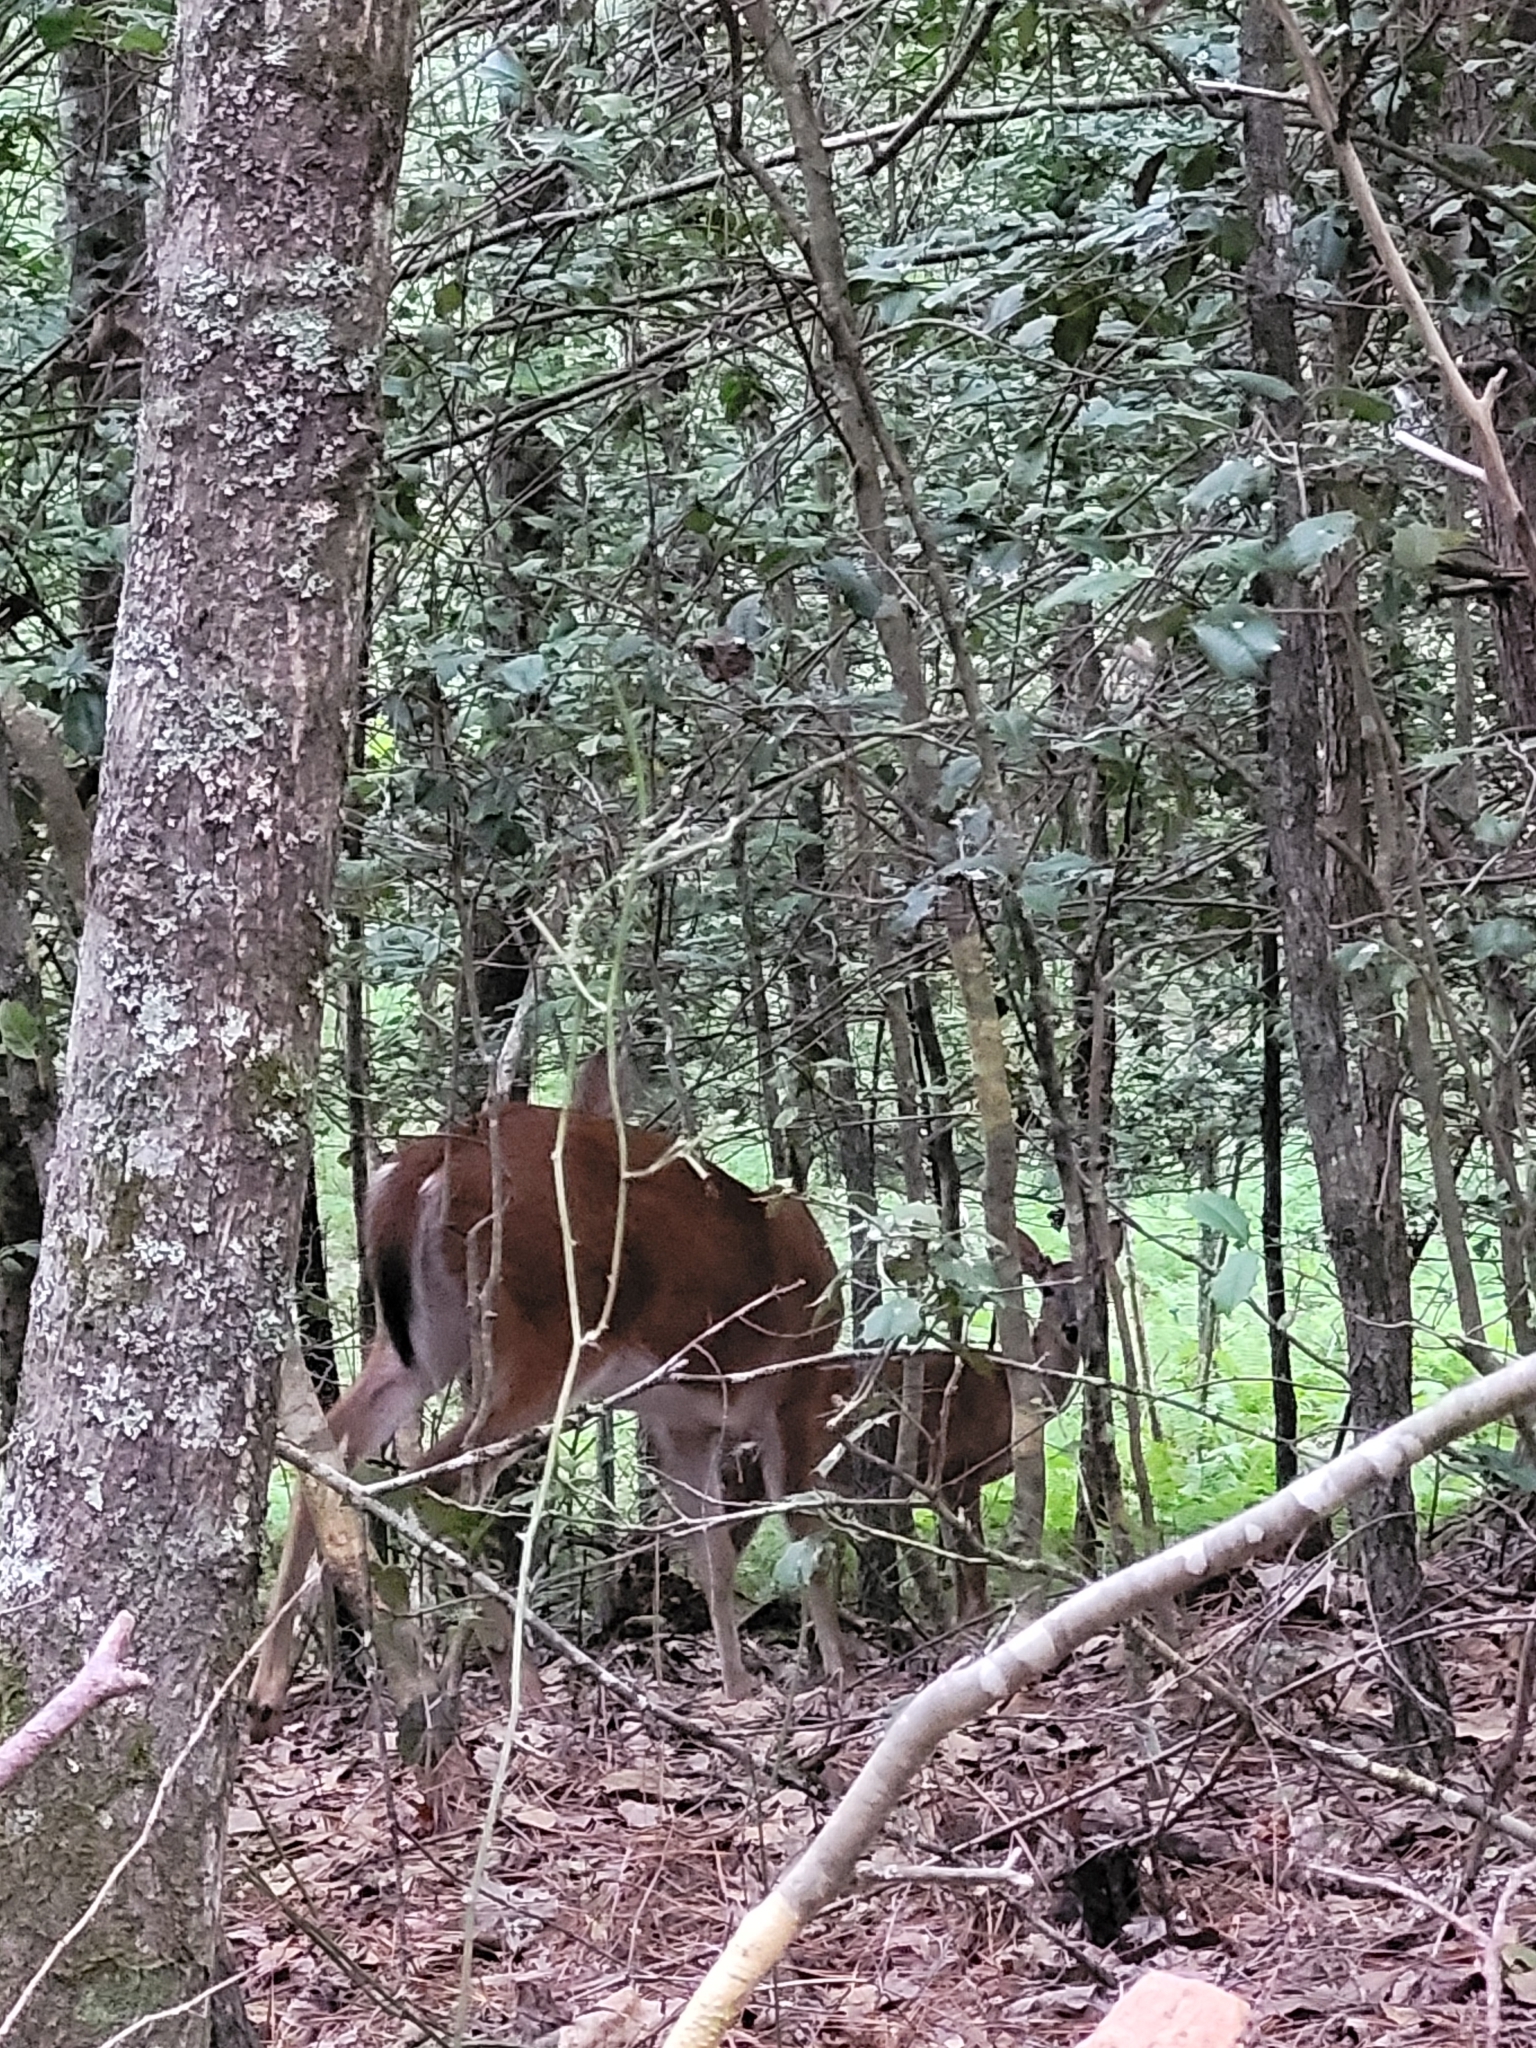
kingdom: Animalia
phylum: Chordata
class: Mammalia
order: Artiodactyla
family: Cervidae
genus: Odocoileus
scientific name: Odocoileus virginianus
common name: White-tailed deer
